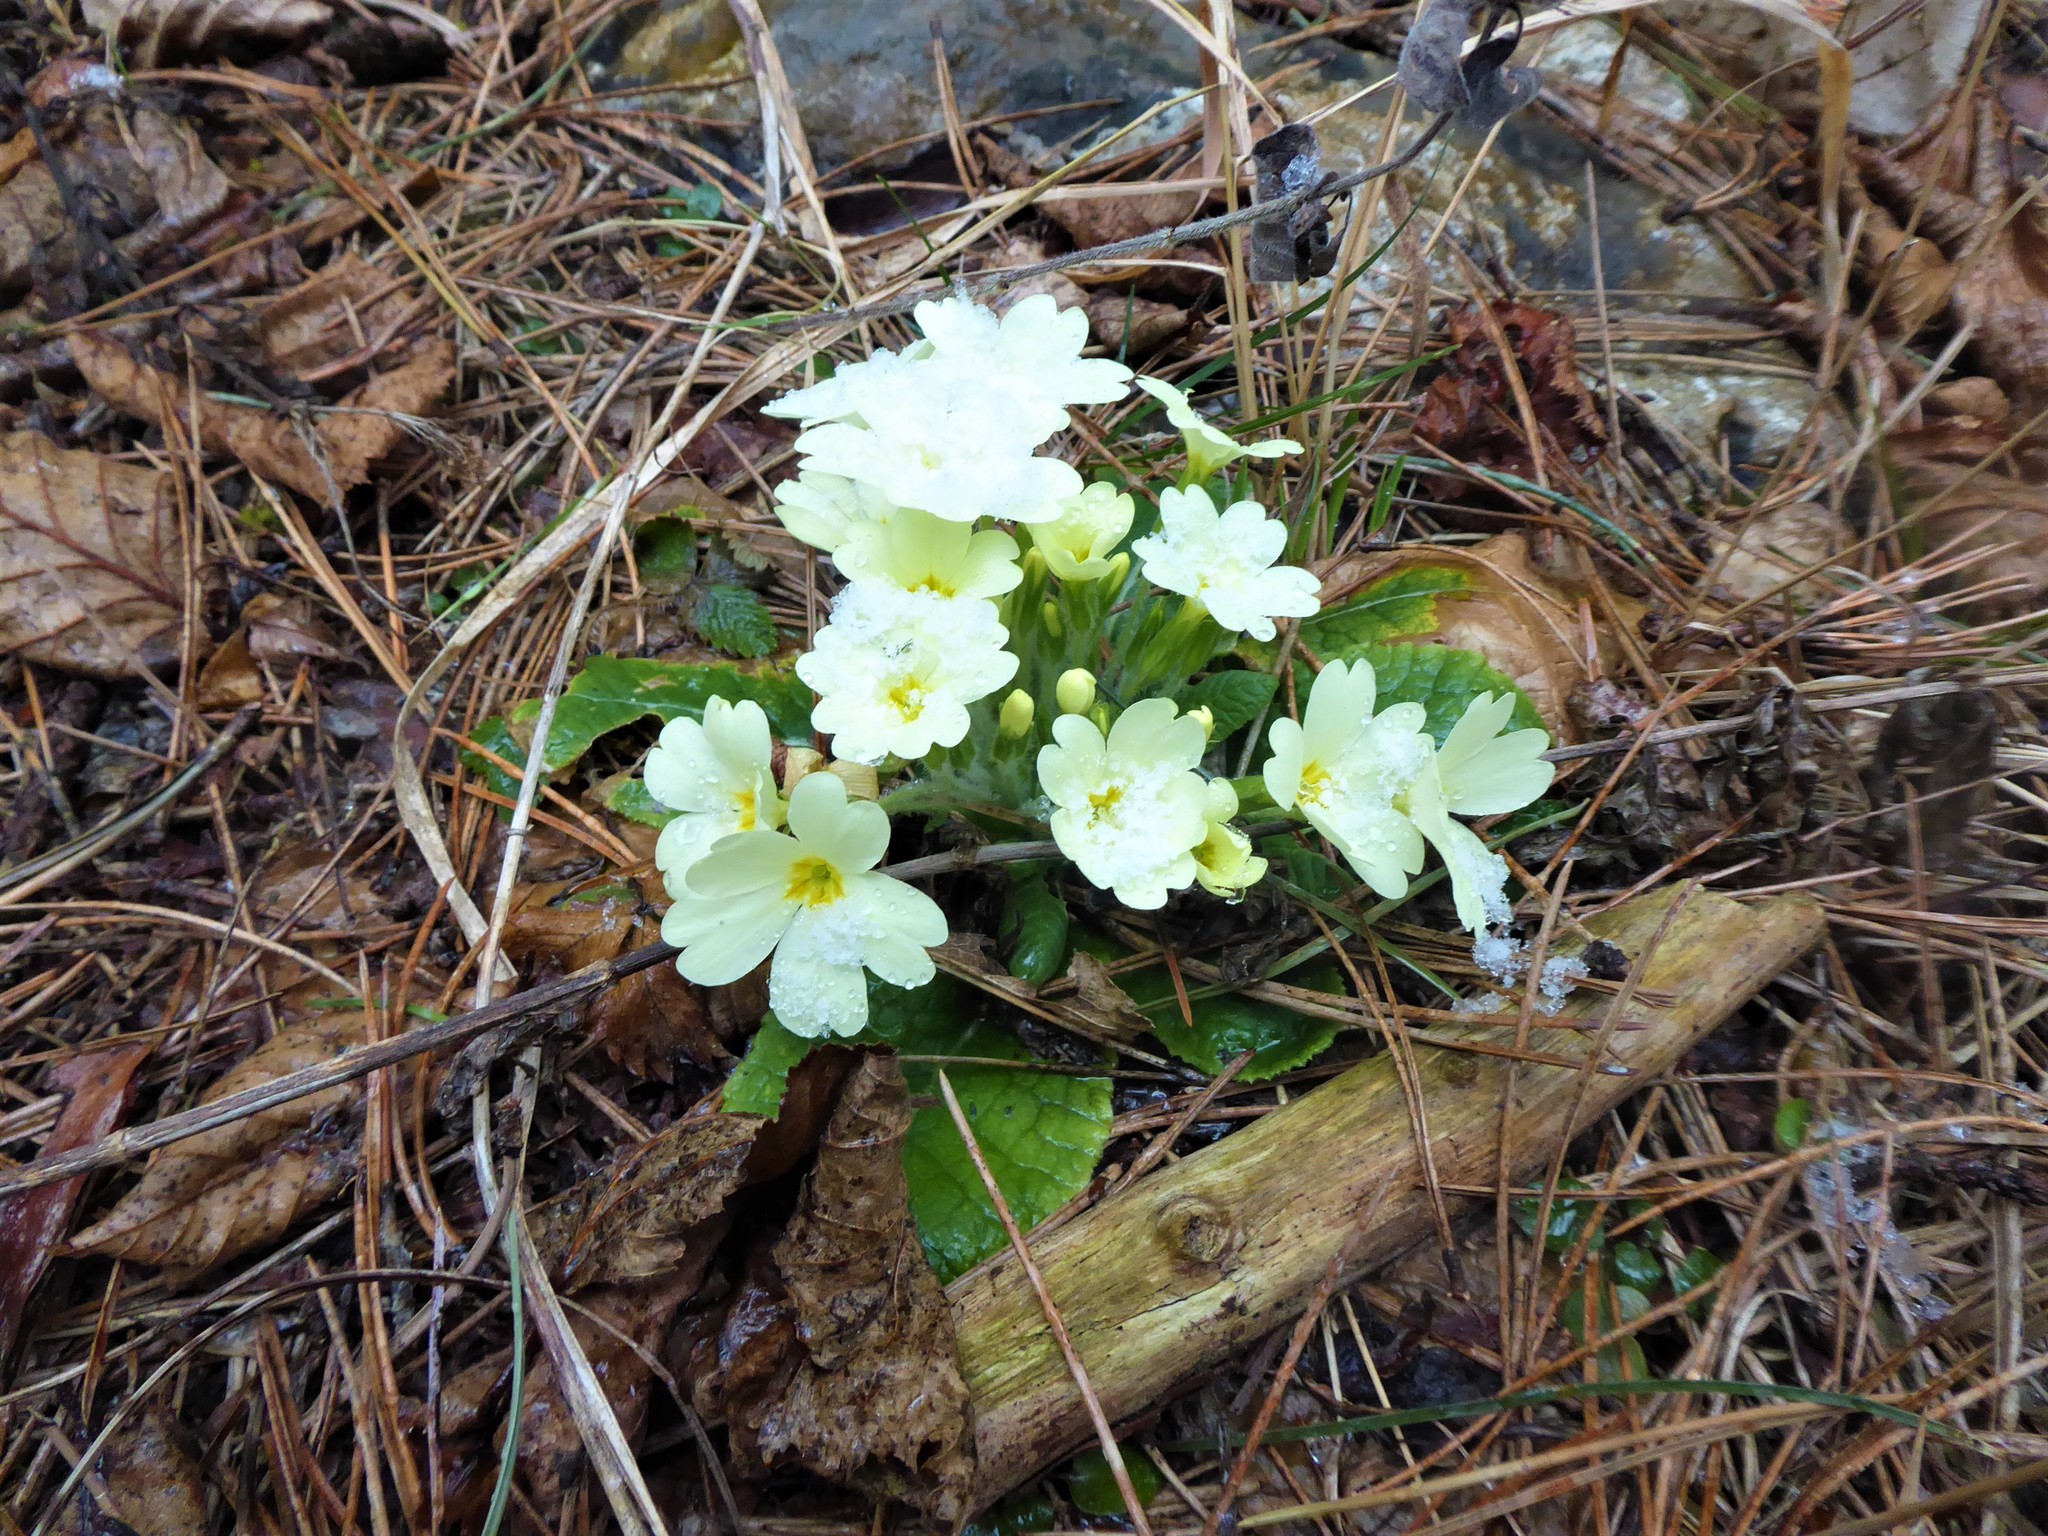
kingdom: Plantae
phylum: Tracheophyta
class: Magnoliopsida
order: Ericales
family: Primulaceae
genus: Primula
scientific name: Primula vulgaris
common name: Primrose
